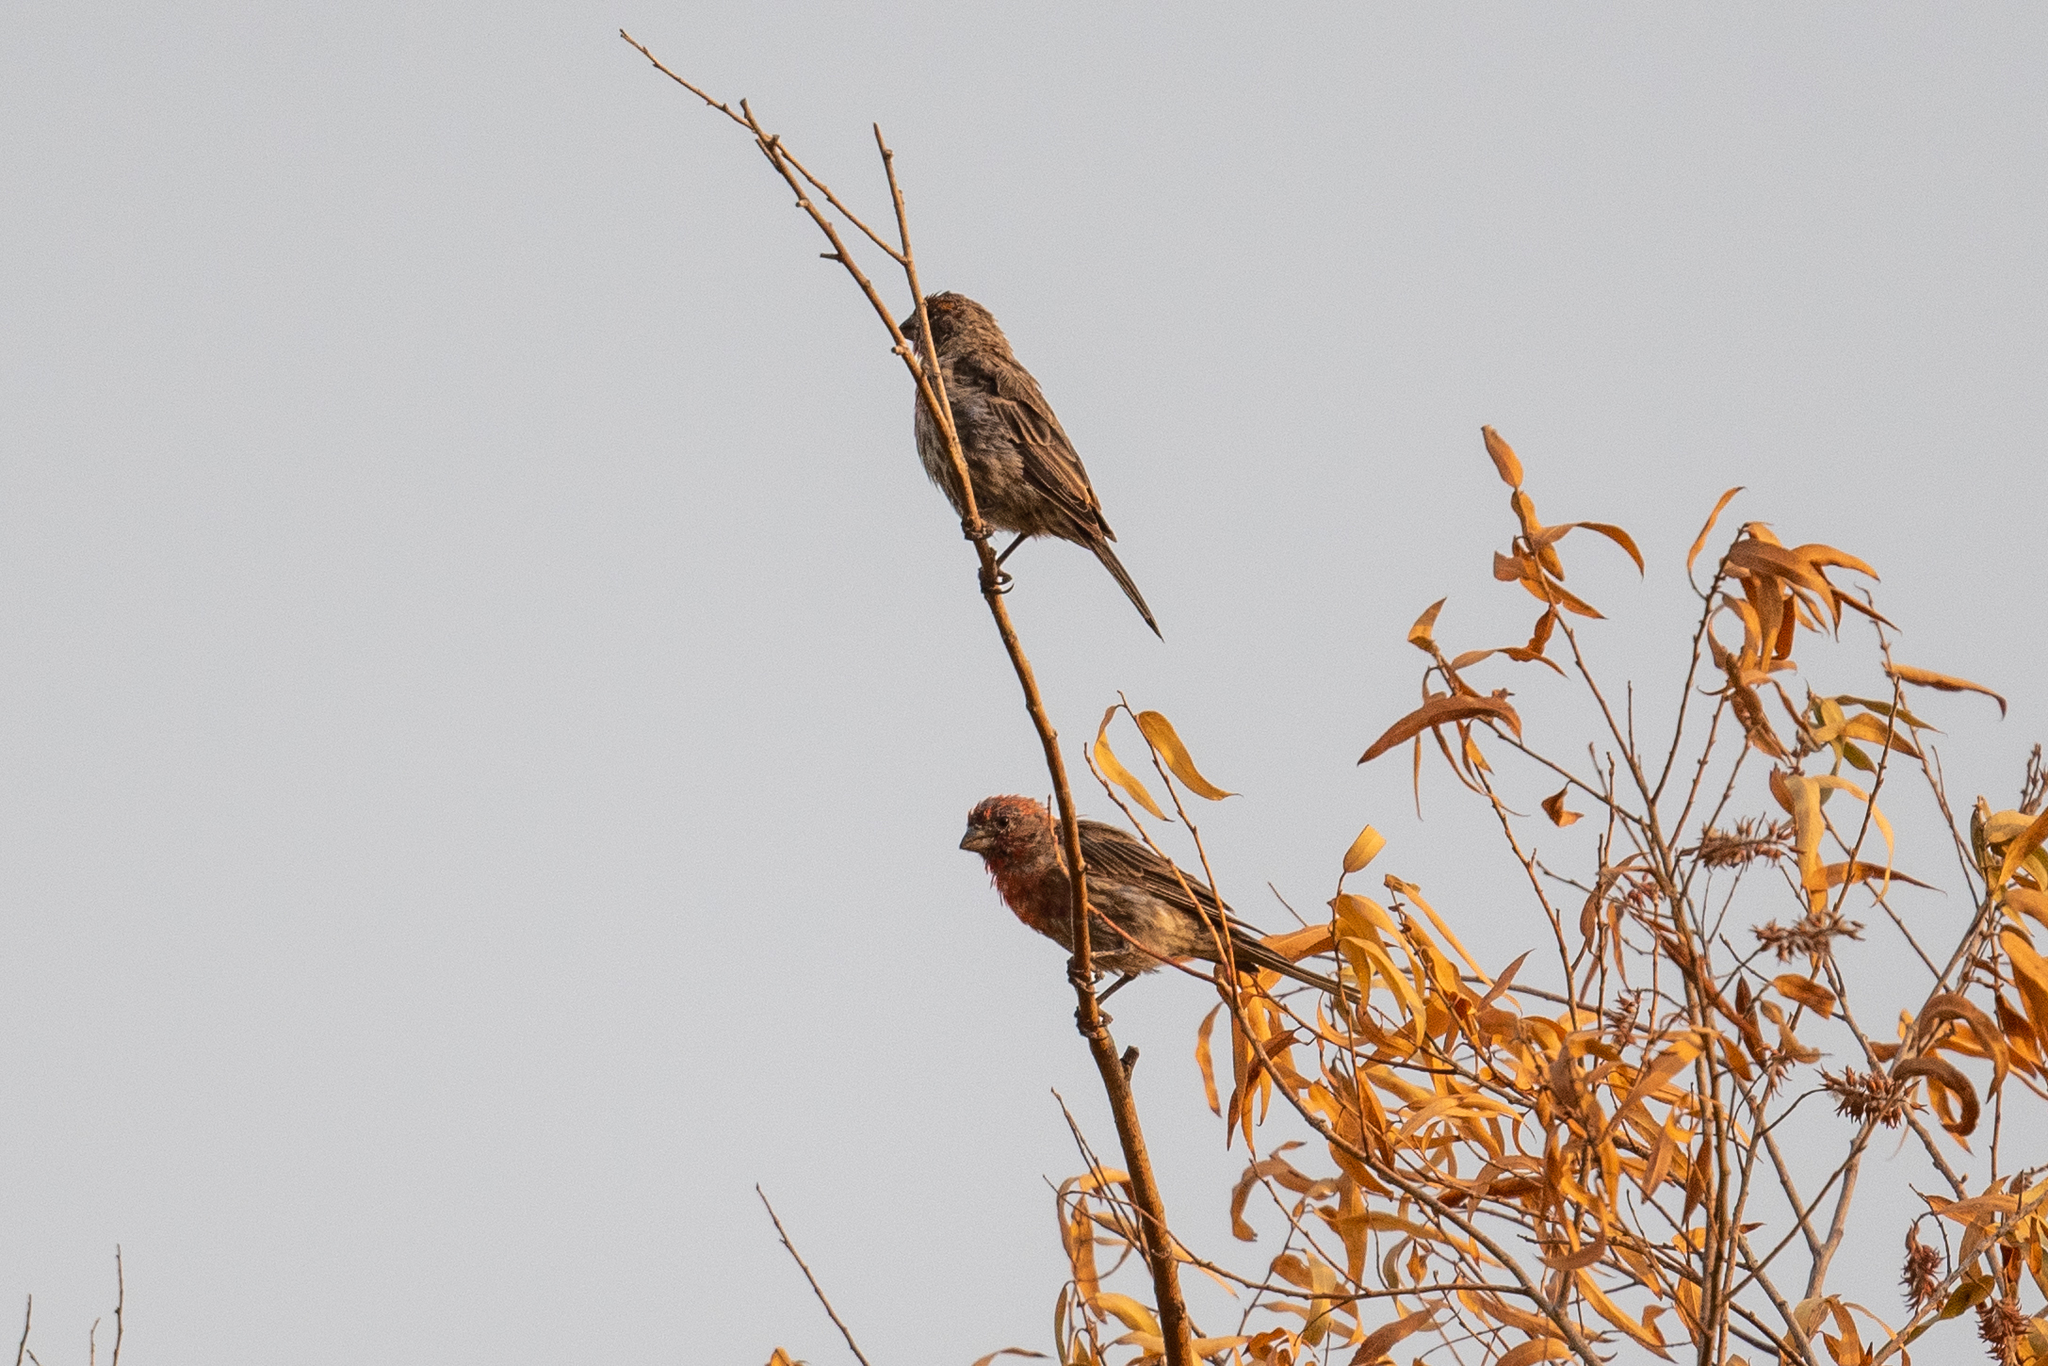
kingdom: Animalia
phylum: Chordata
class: Aves
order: Passeriformes
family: Fringillidae
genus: Haemorhous
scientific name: Haemorhous mexicanus
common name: House finch
